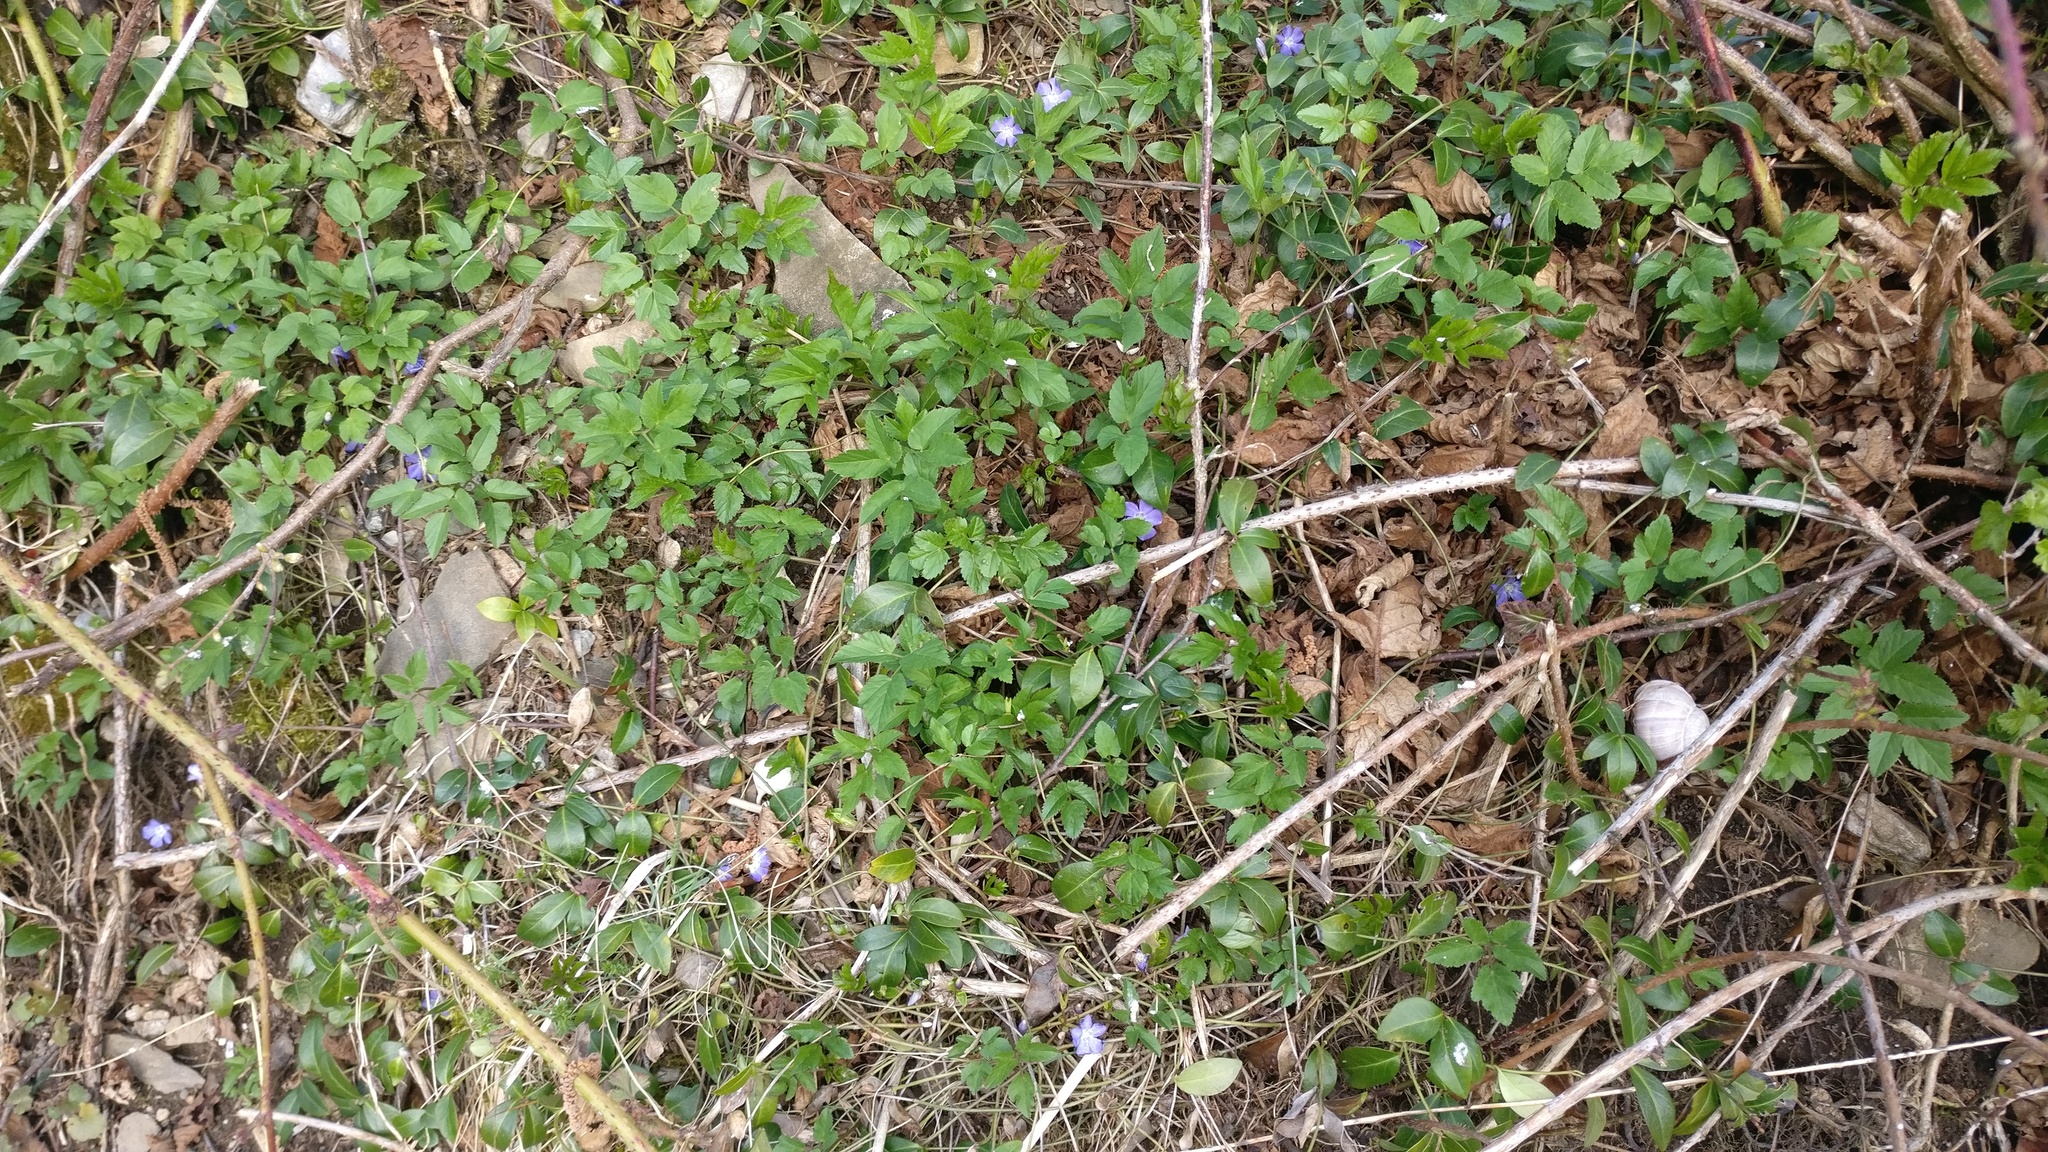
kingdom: Plantae
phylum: Tracheophyta
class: Magnoliopsida
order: Gentianales
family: Apocynaceae
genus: Vinca
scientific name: Vinca minor
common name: Lesser periwinkle
